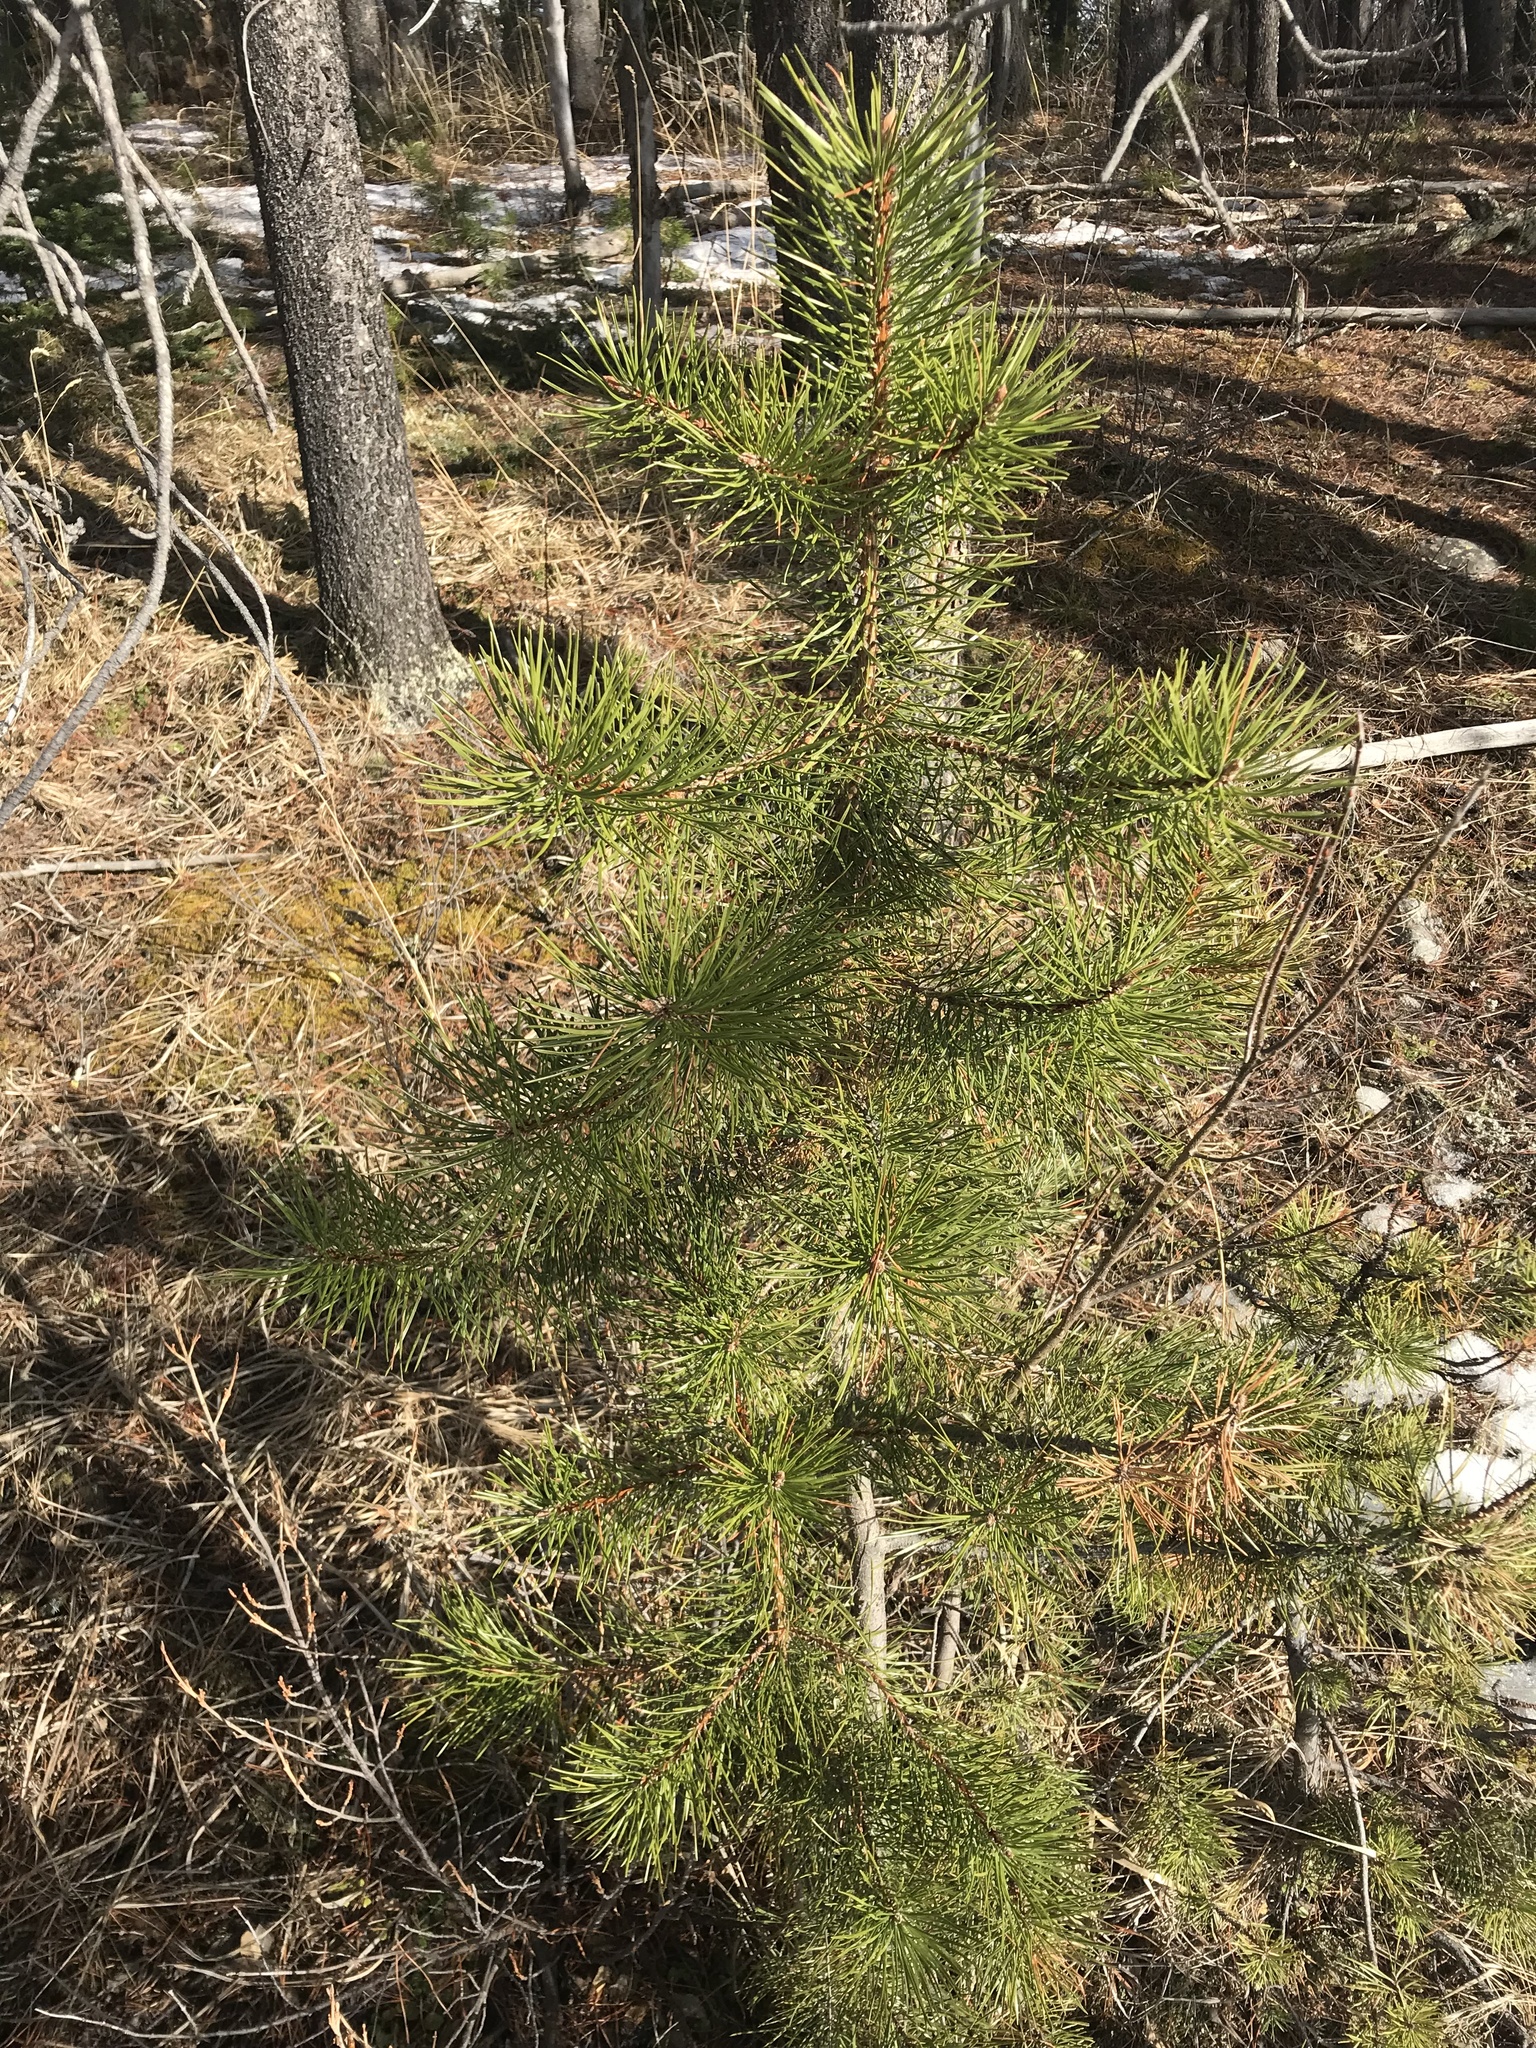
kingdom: Plantae
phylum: Tracheophyta
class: Pinopsida
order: Pinales
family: Pinaceae
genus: Pinus
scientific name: Pinus contorta
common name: Lodgepole pine
